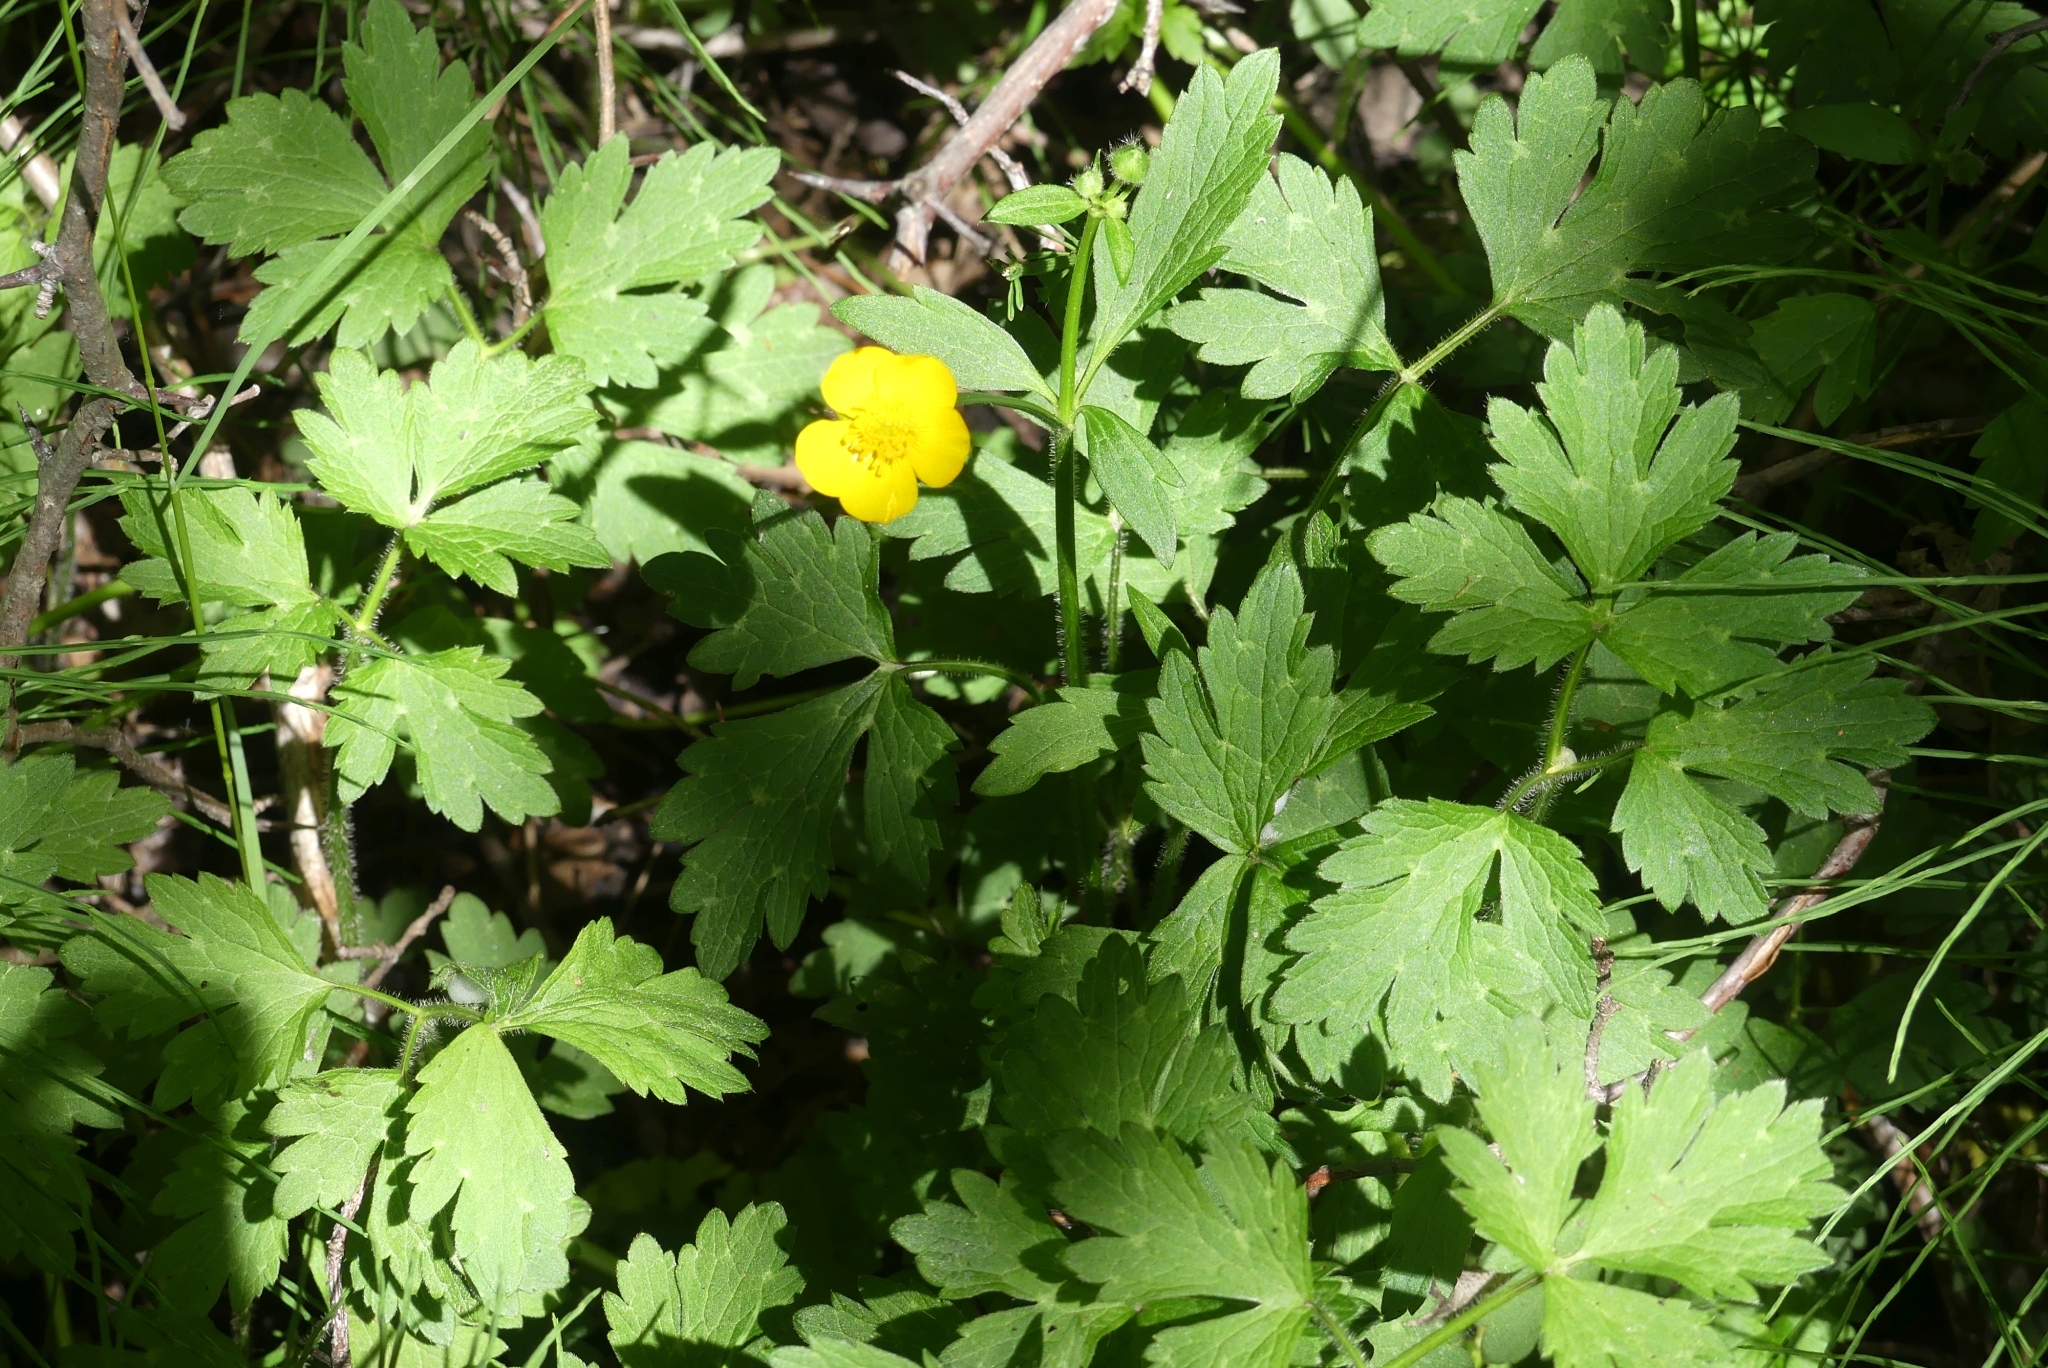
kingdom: Plantae
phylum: Tracheophyta
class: Magnoliopsida
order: Ranunculales
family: Ranunculaceae
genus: Ranunculus
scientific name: Ranunculus repens
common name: Creeping buttercup
